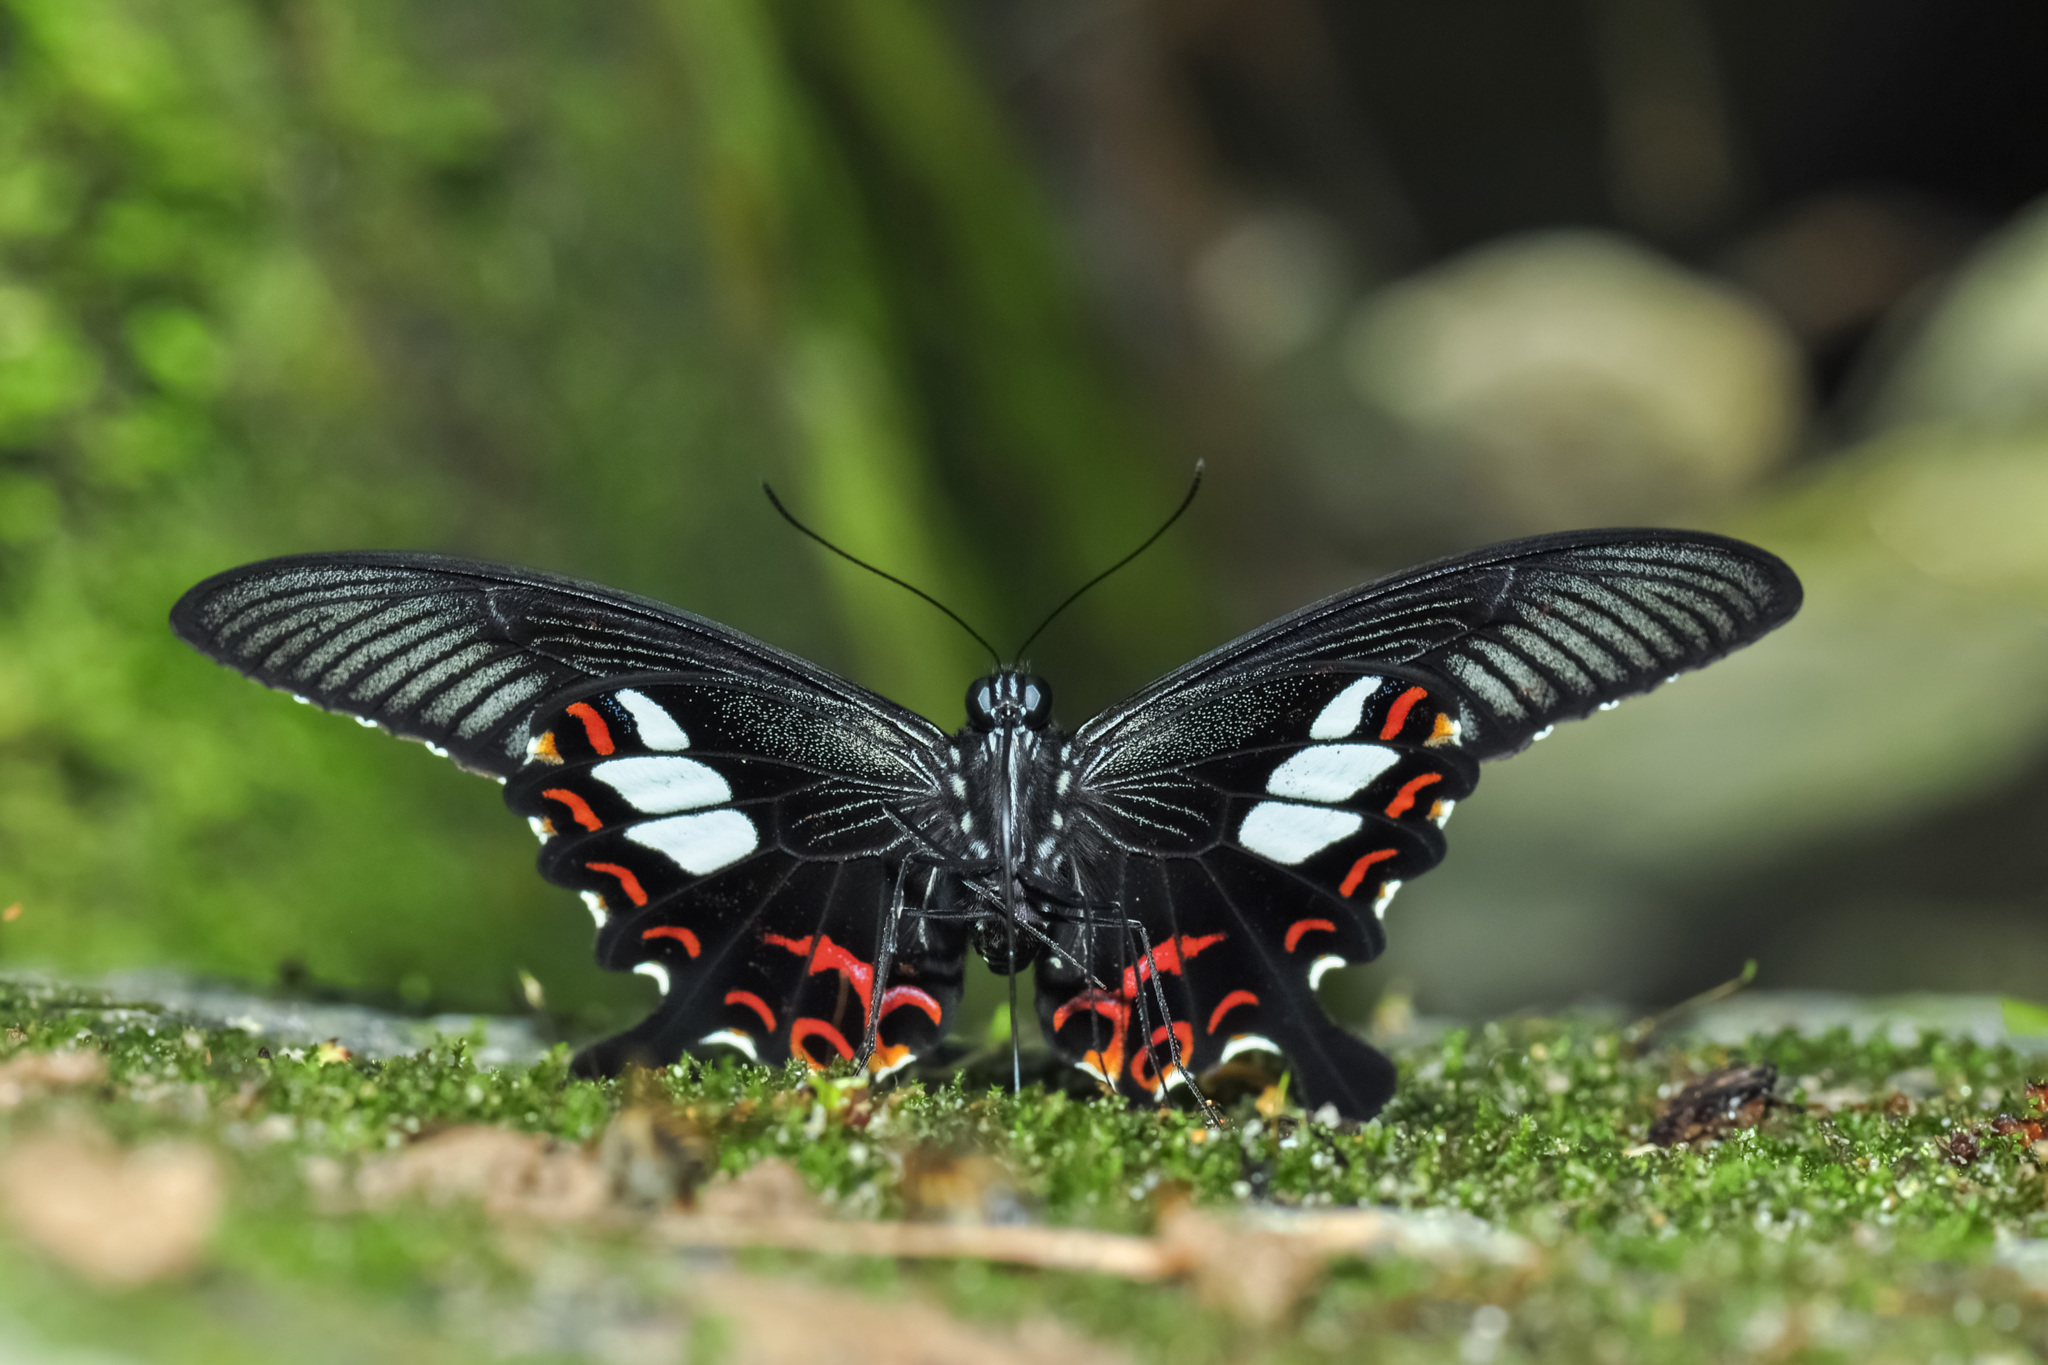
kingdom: Animalia
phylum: Arthropoda
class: Insecta
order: Lepidoptera
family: Papilionidae
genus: Papilio
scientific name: Papilio helenus
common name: Red helen
